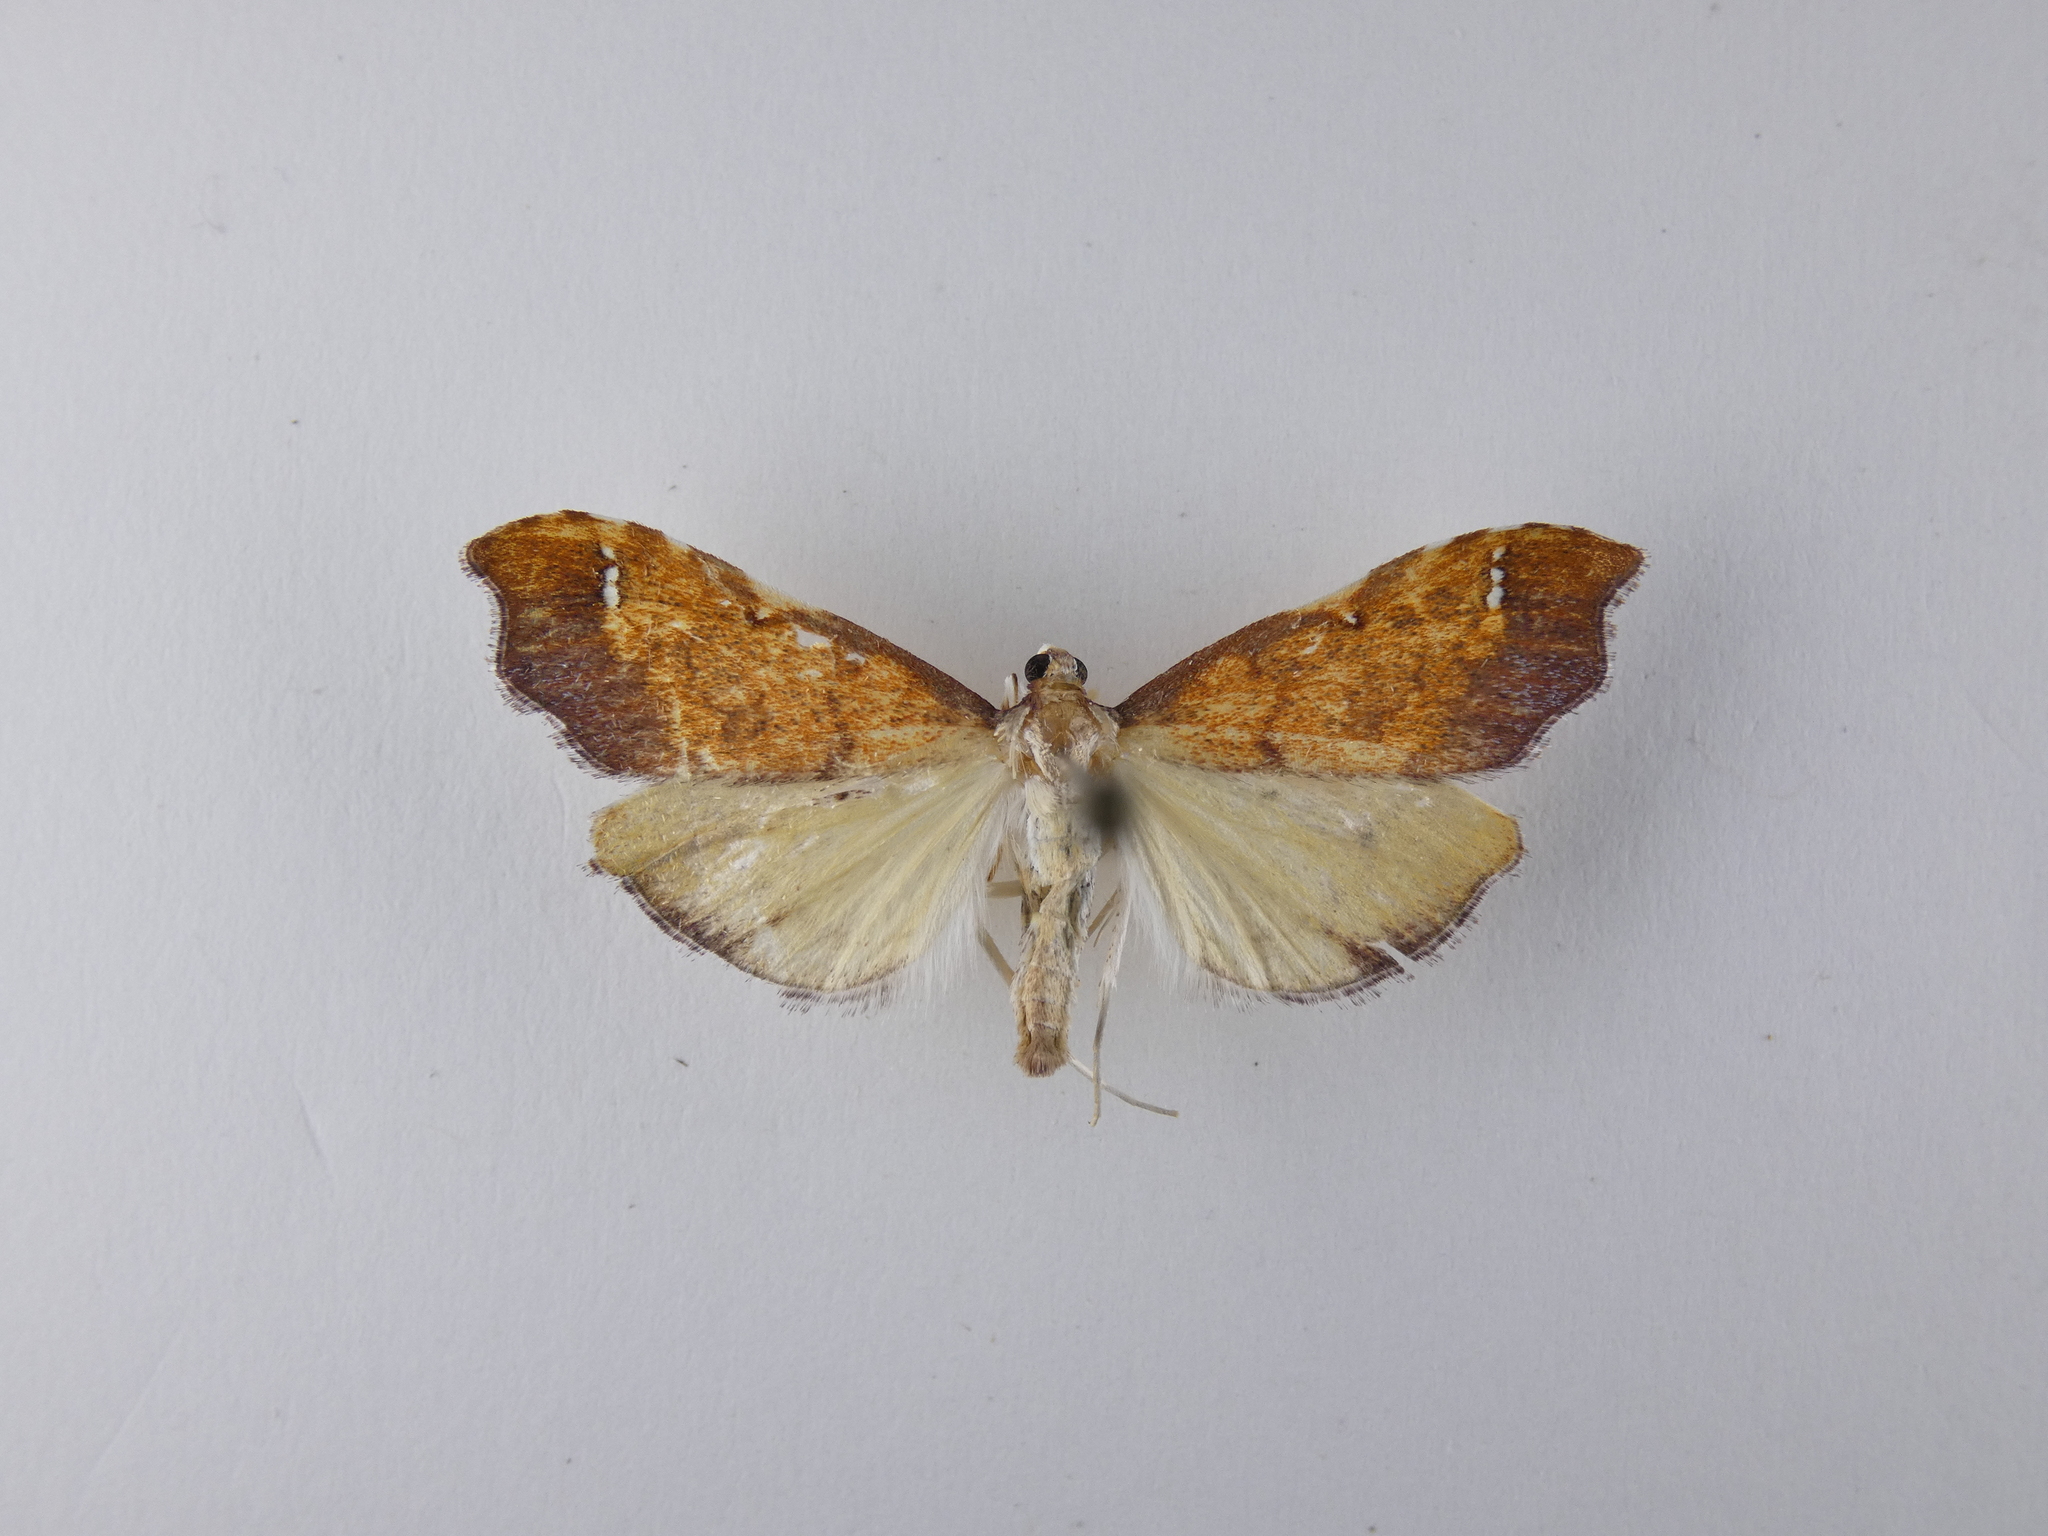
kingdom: Animalia
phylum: Arthropoda
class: Insecta
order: Lepidoptera
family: Crambidae
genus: Deana
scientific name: Deana hybreasalis
